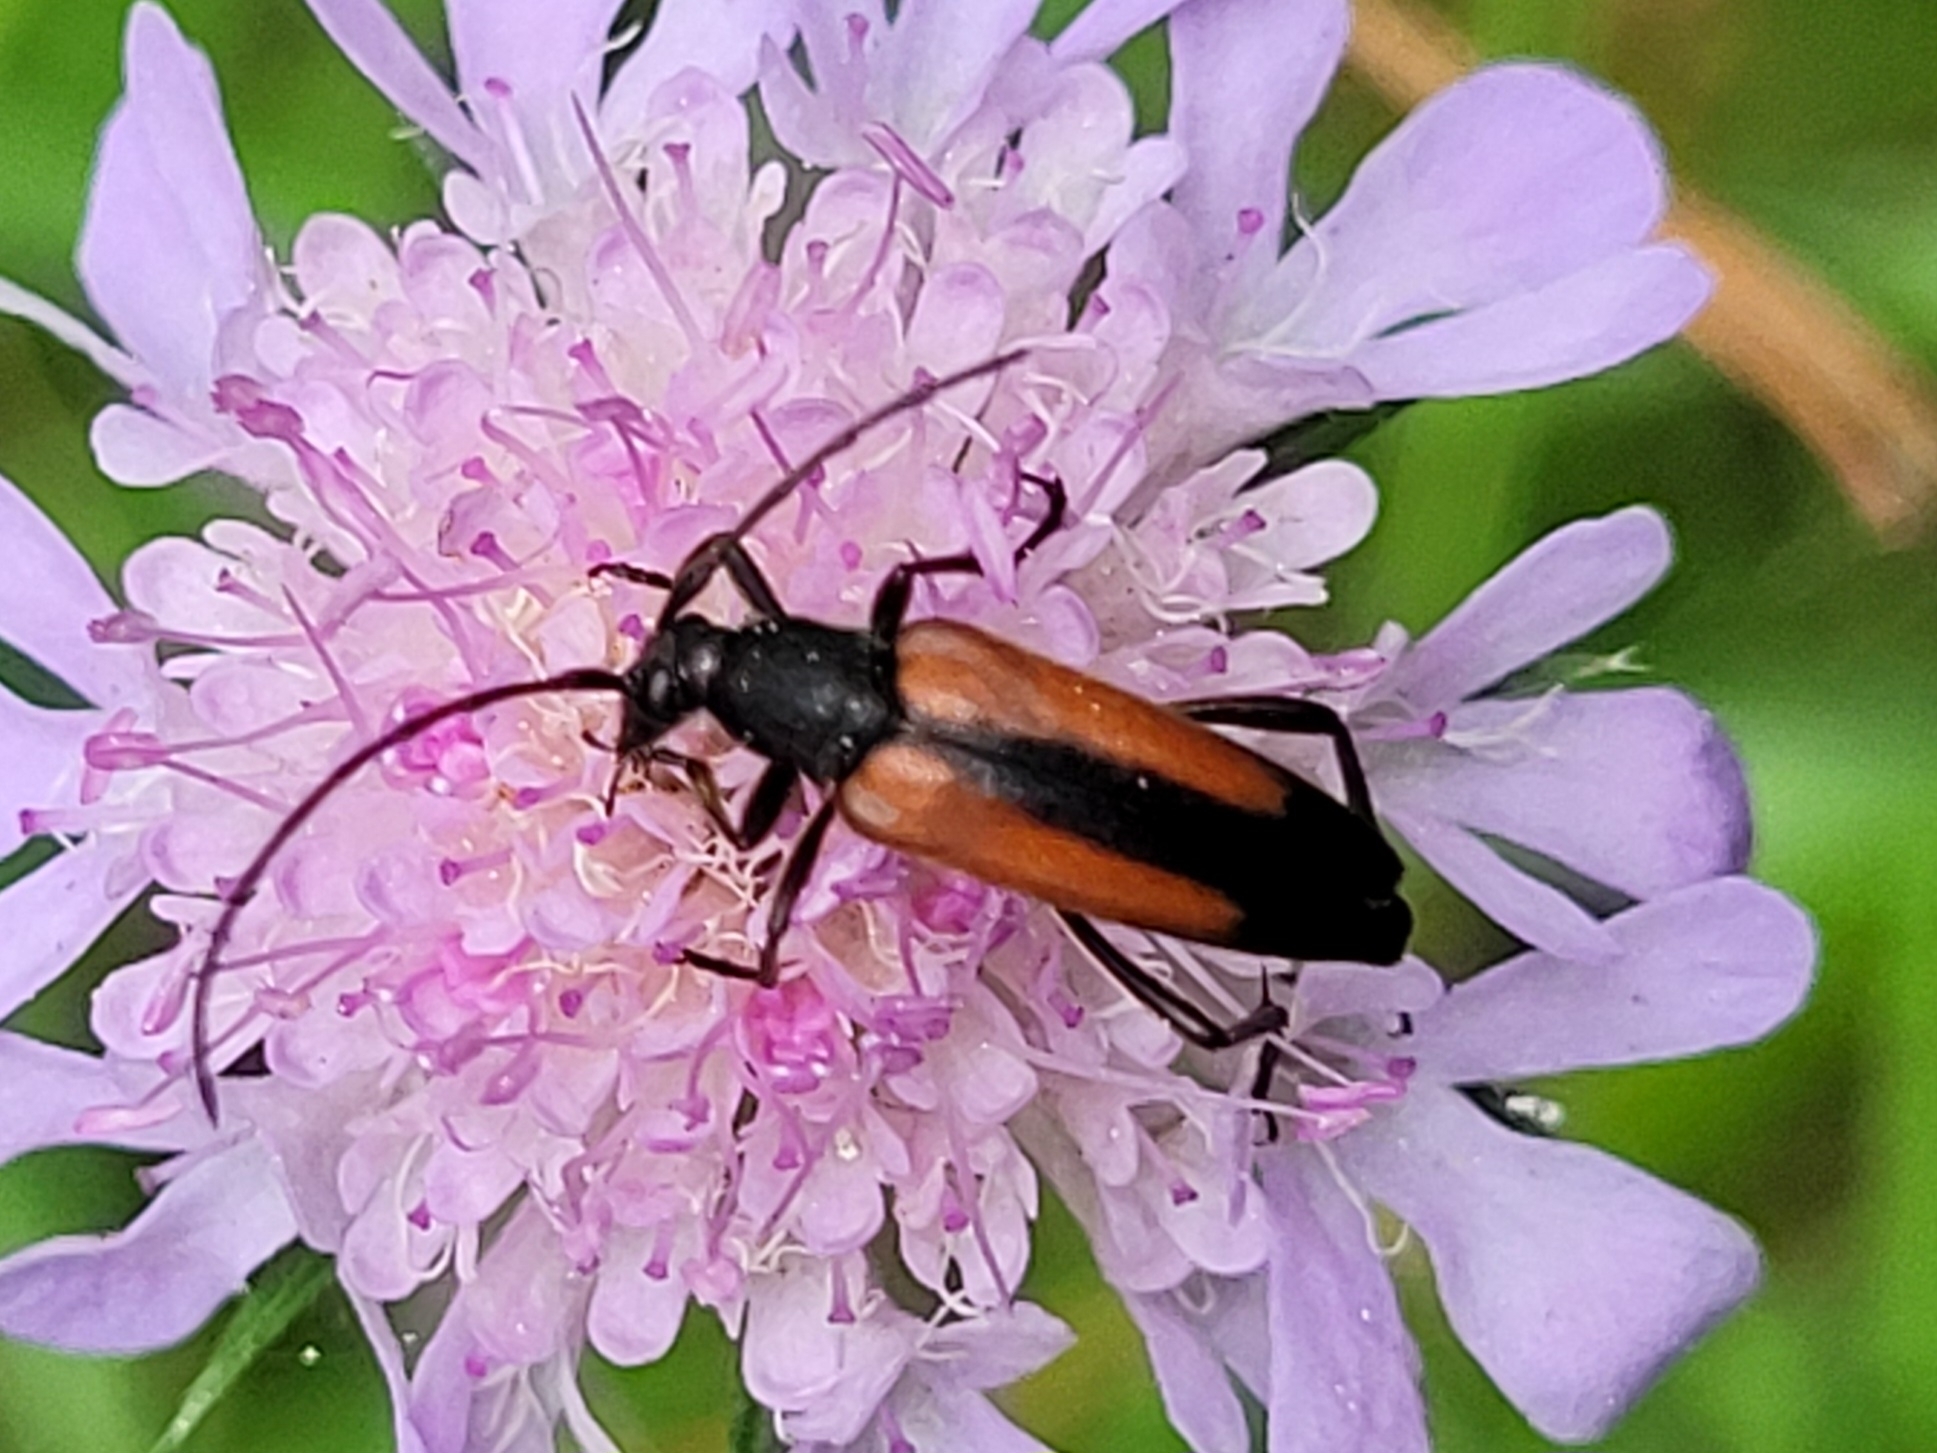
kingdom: Animalia
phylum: Arthropoda
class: Insecta
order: Coleoptera
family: Cerambycidae
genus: Stenurella
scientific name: Stenurella melanura
